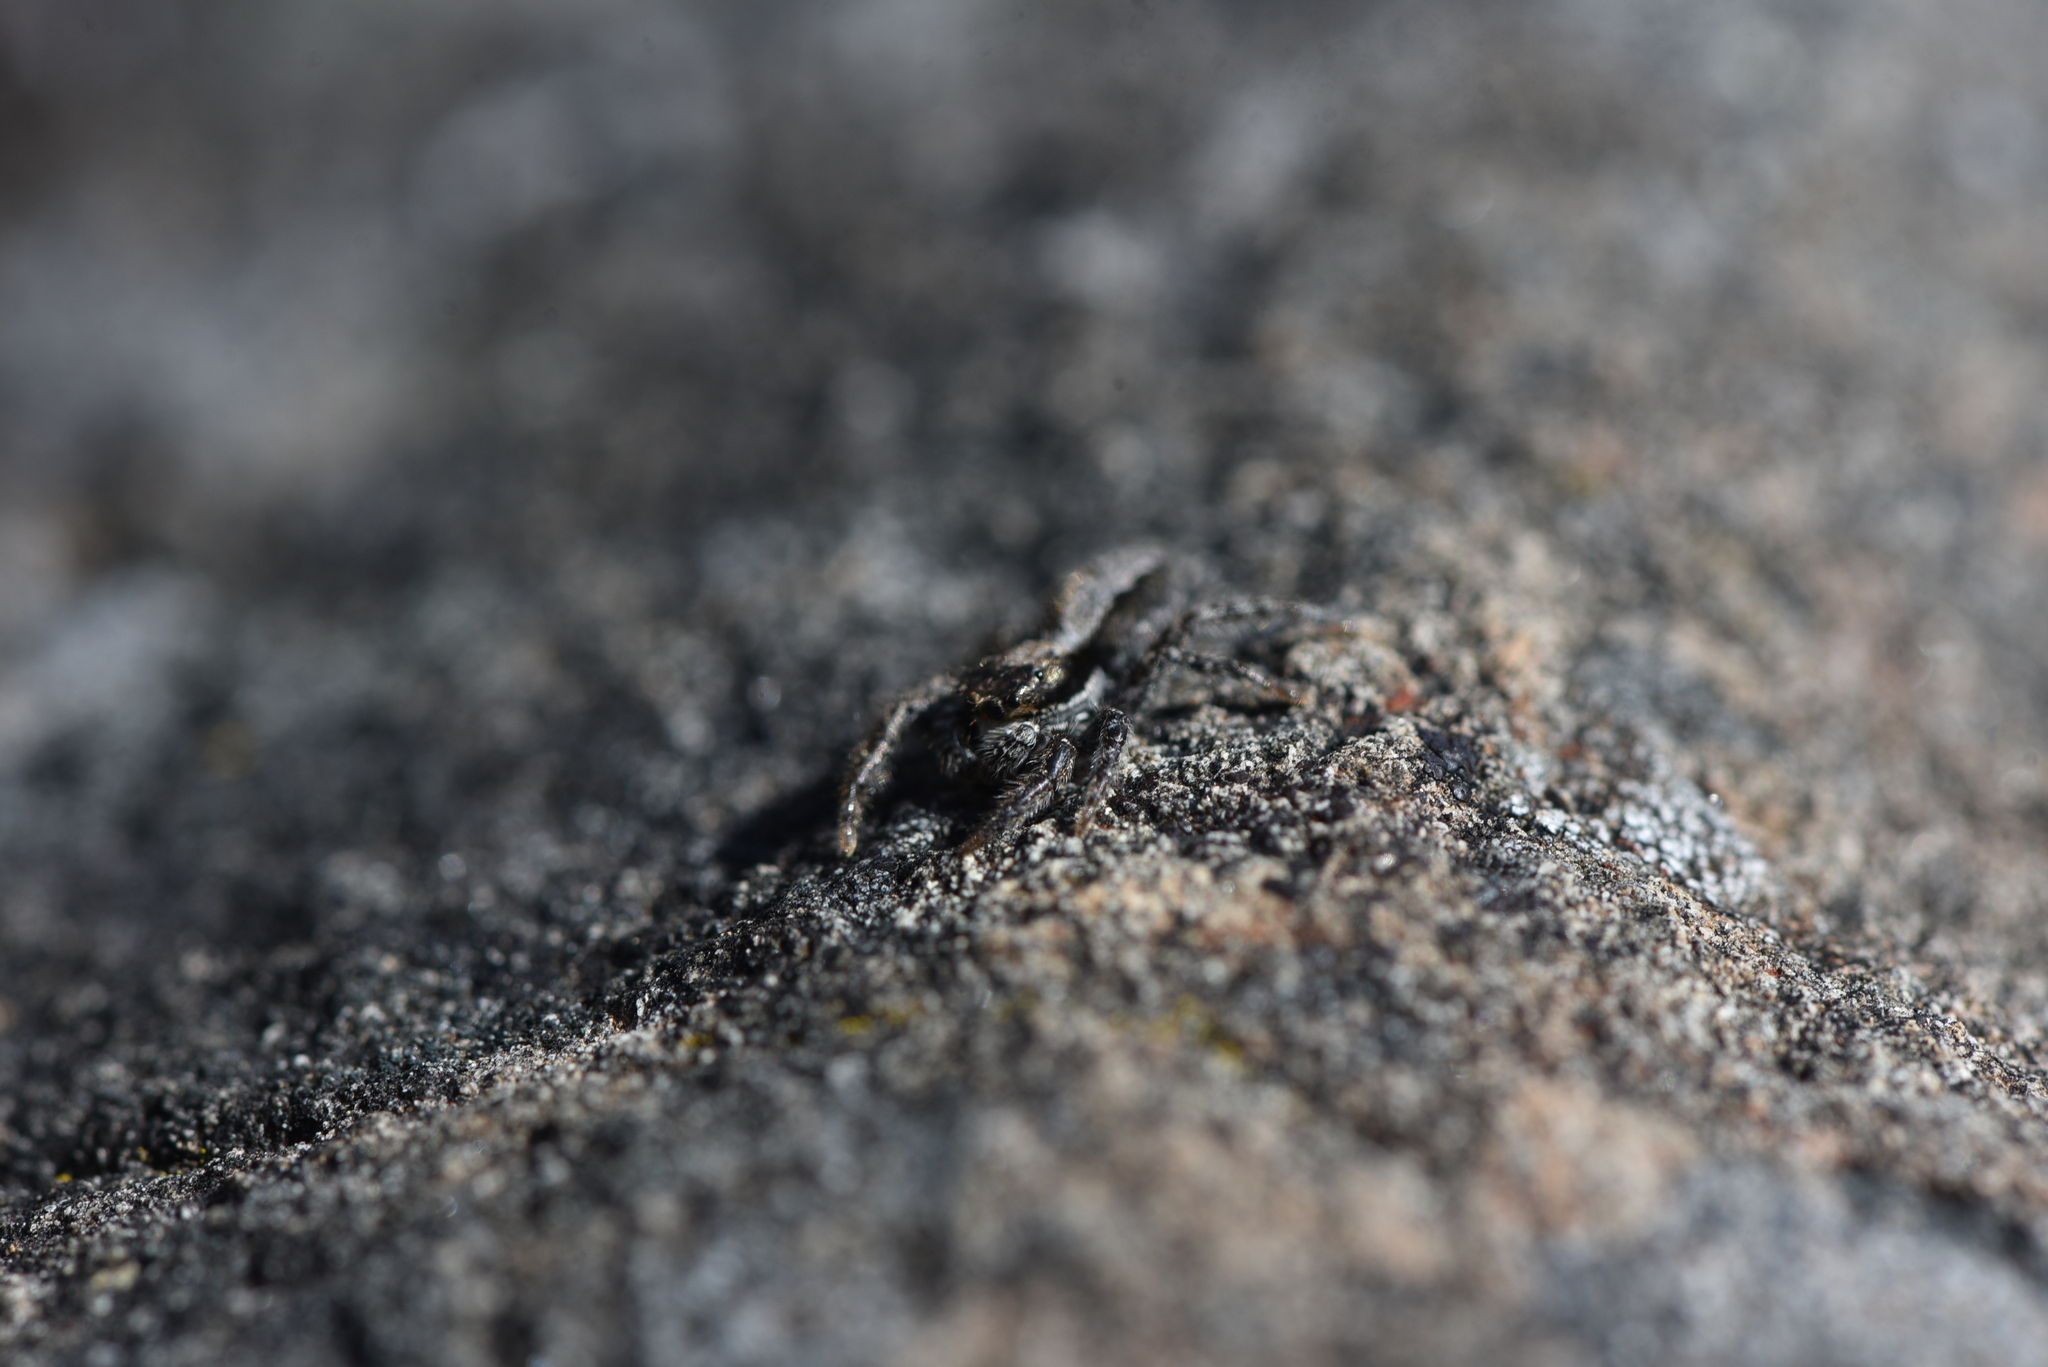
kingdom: Animalia
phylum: Arthropoda
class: Arachnida
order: Araneae
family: Salticidae
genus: Platycryptus
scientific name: Platycryptus californicus
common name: Jumping spiders
